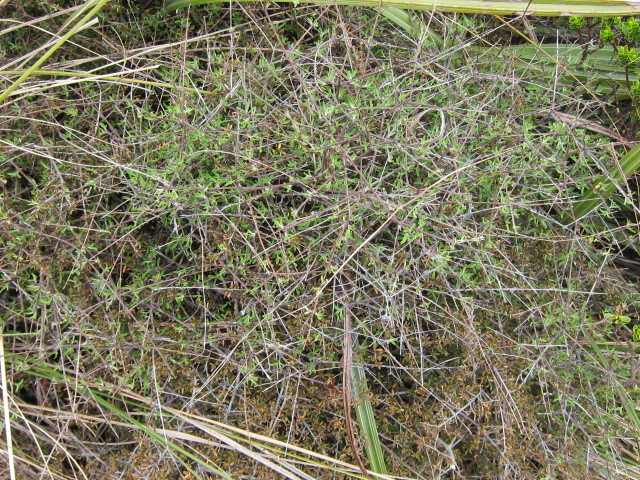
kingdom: Plantae
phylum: Tracheophyta
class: Magnoliopsida
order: Asterales
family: Asteraceae
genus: Olearia
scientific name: Olearia bullata
